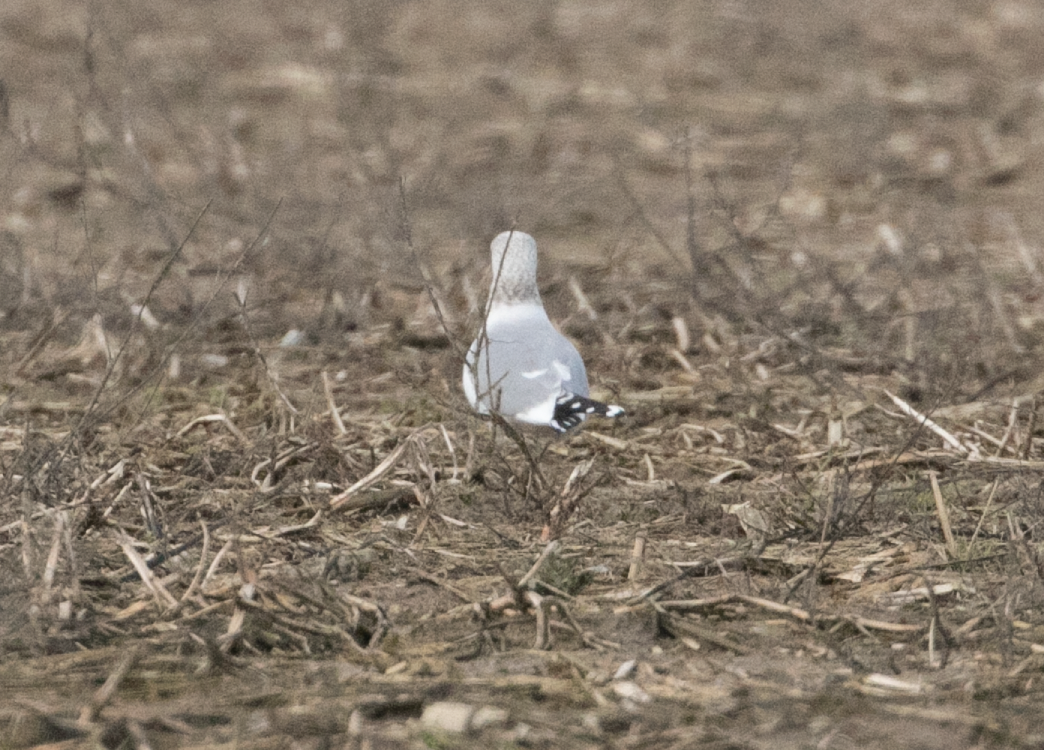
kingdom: Animalia
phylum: Chordata
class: Aves
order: Charadriiformes
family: Laridae
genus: Larus
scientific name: Larus canus
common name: Mew gull
